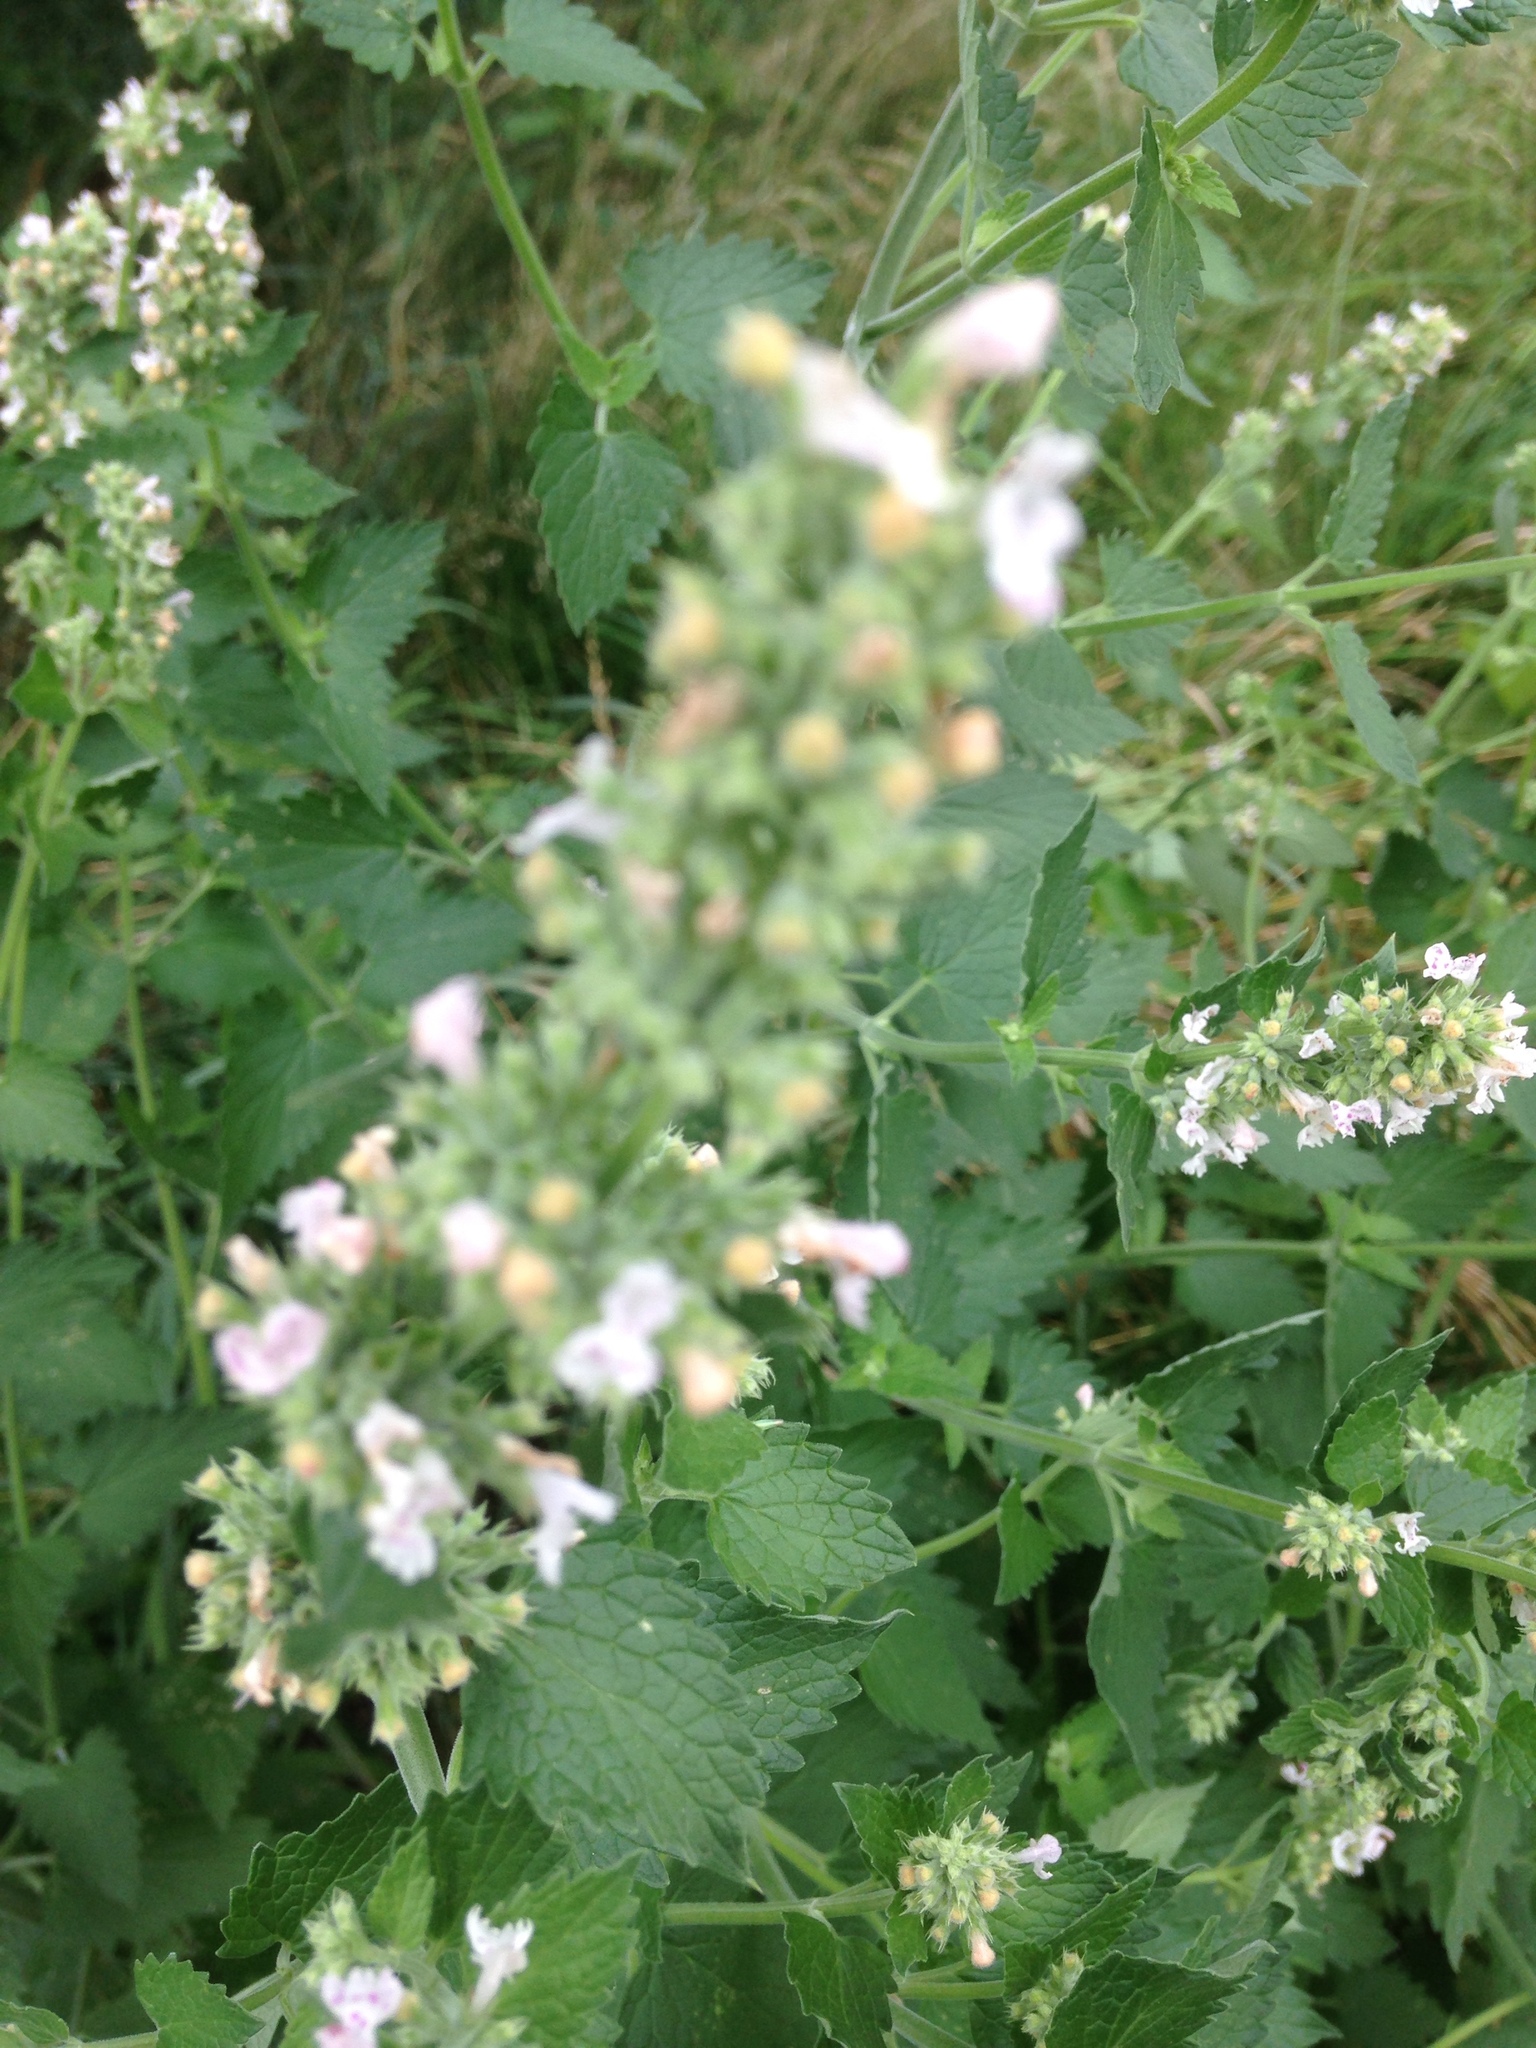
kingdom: Plantae
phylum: Tracheophyta
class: Magnoliopsida
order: Lamiales
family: Lamiaceae
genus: Nepeta
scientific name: Nepeta cataria
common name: Catnip
